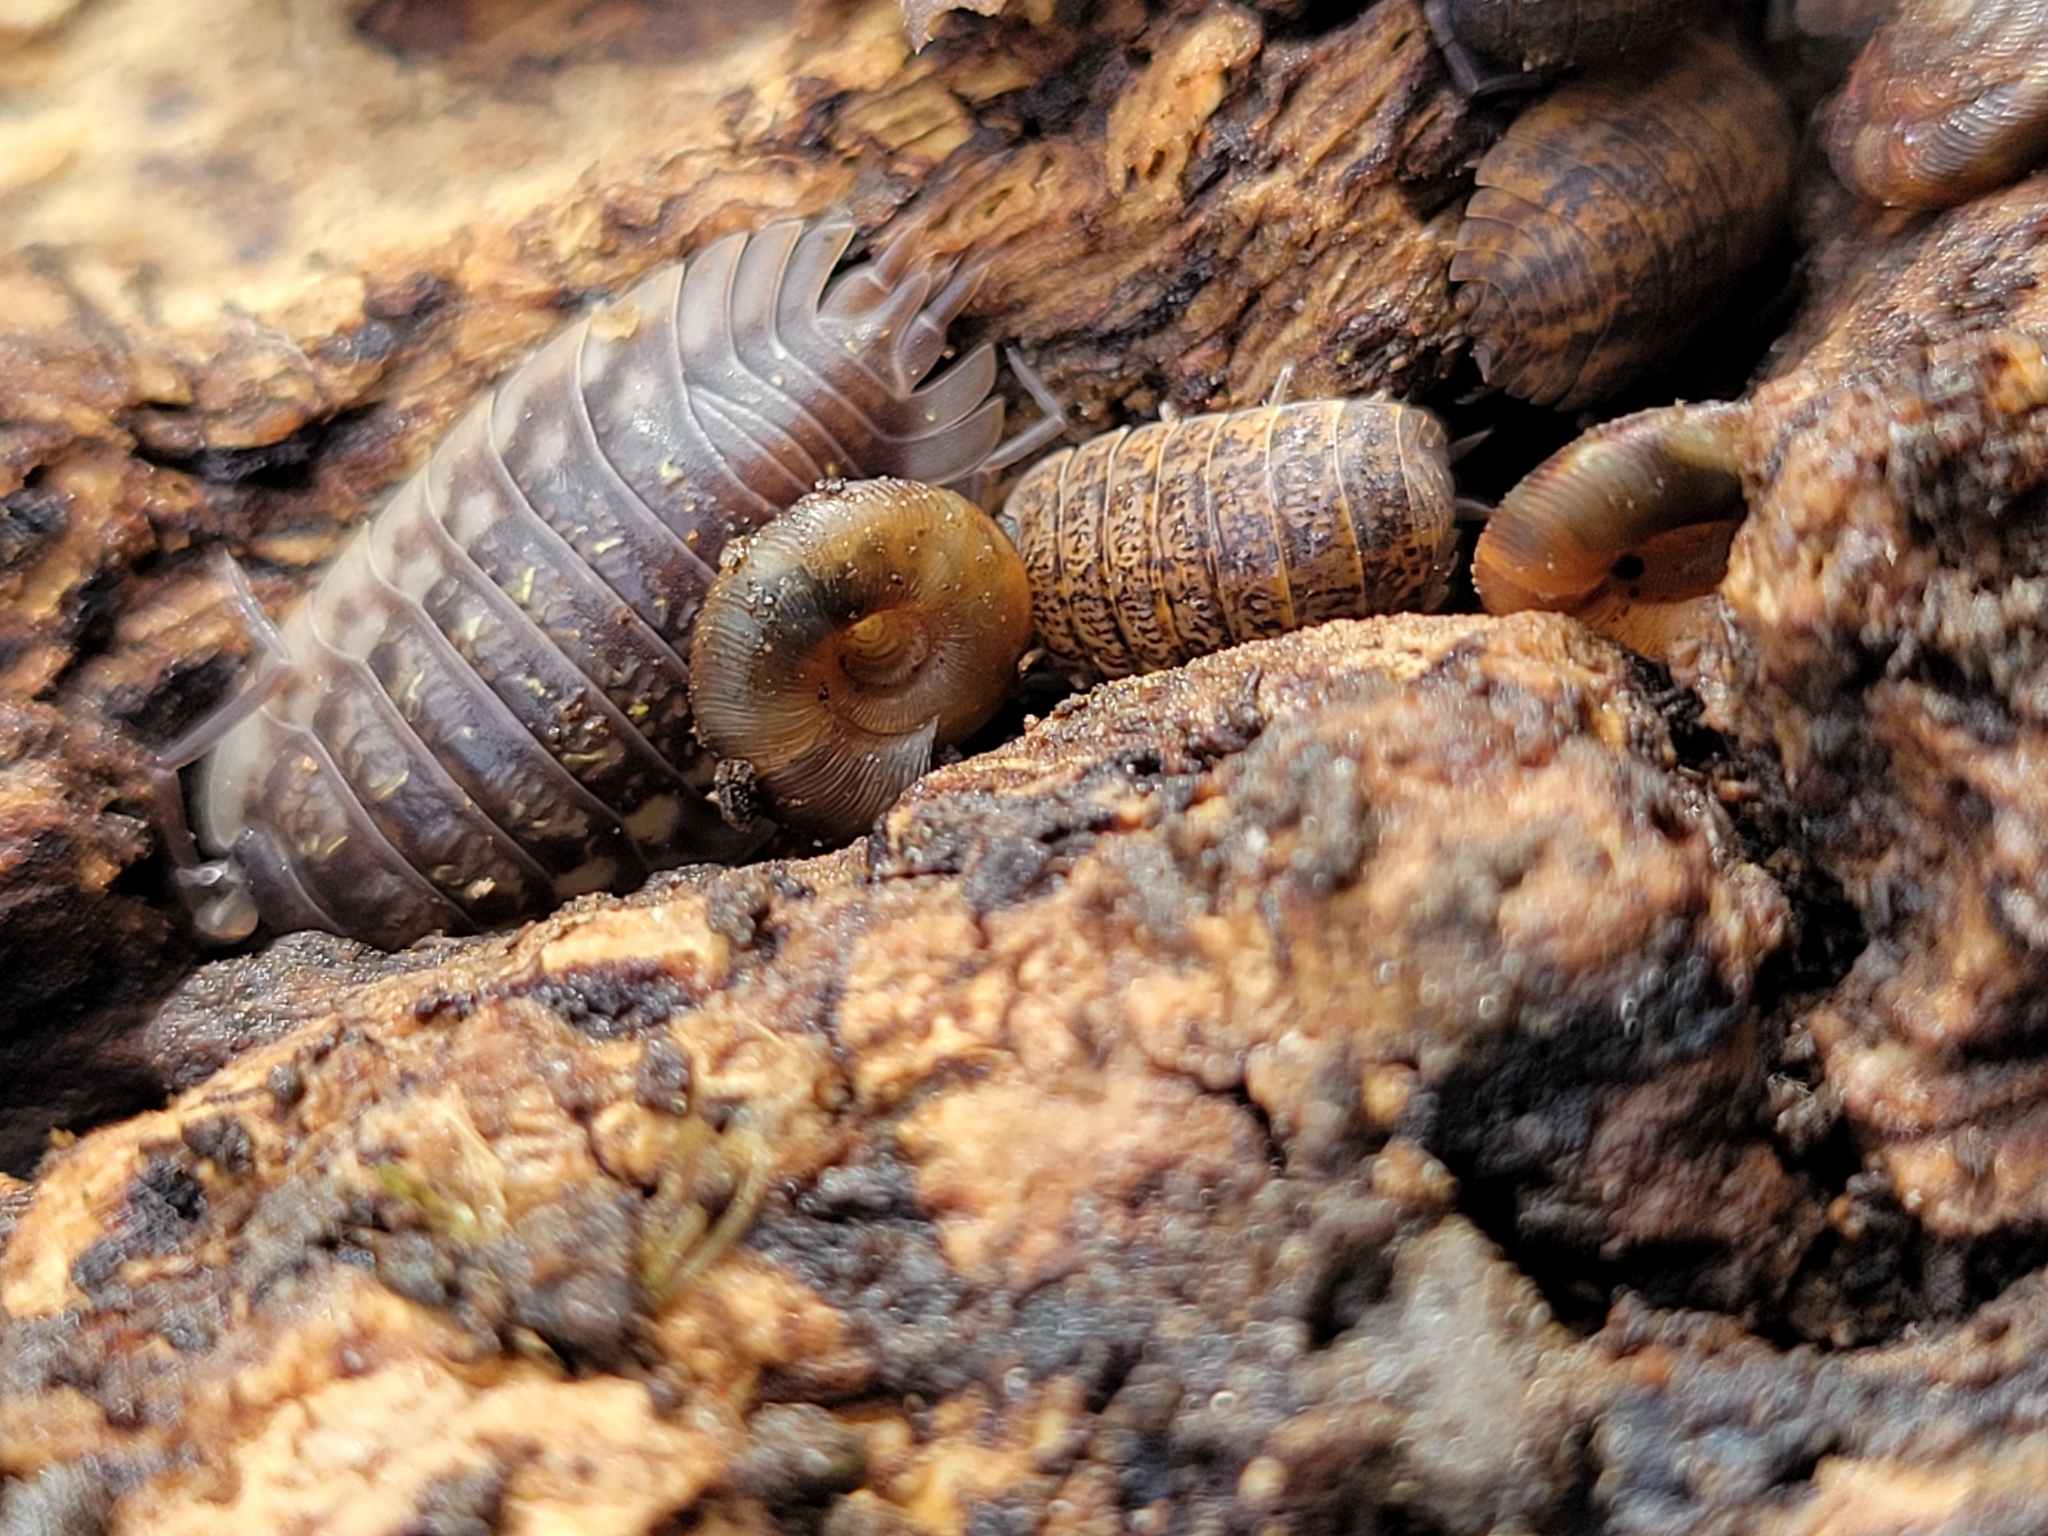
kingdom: Animalia
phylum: Mollusca
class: Gastropoda
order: Stylommatophora
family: Discidae
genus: Discus
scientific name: Discus rotundatus
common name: Rounded snail
